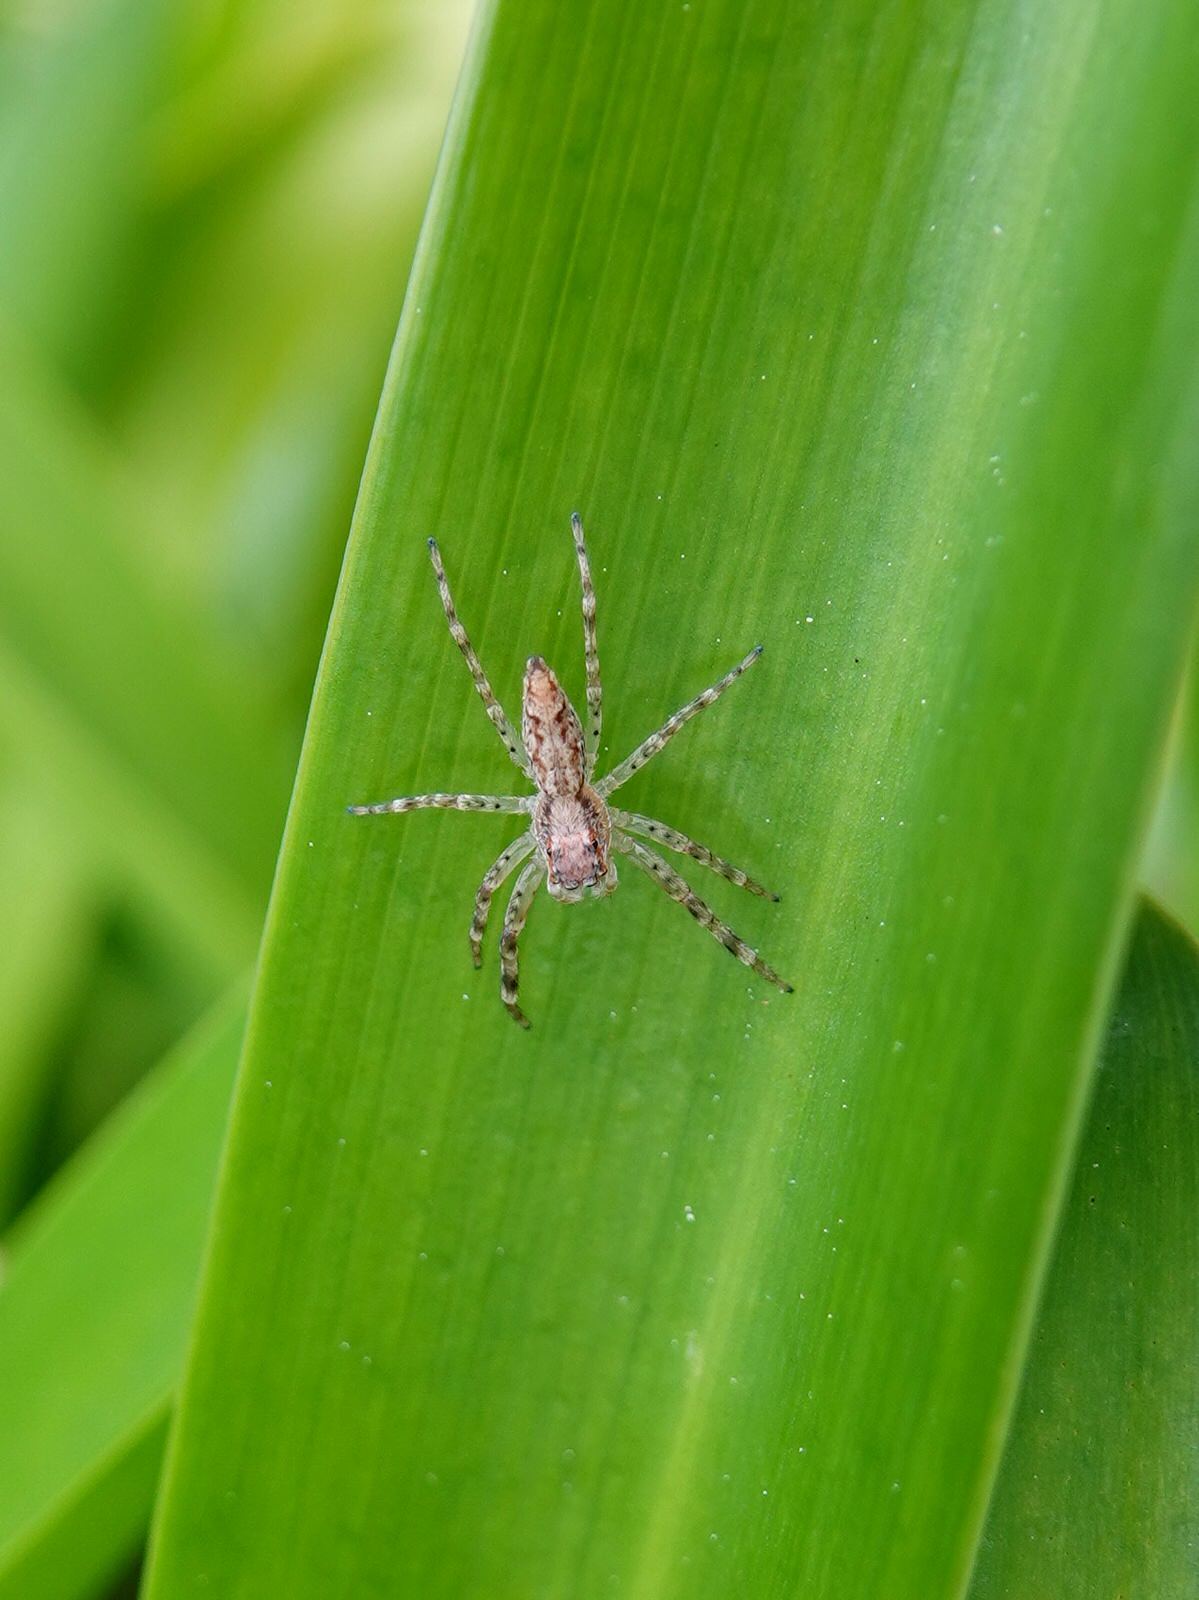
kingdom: Animalia
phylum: Arthropoda
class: Arachnida
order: Araneae
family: Salticidae
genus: Helpis
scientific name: Helpis minitabunda
